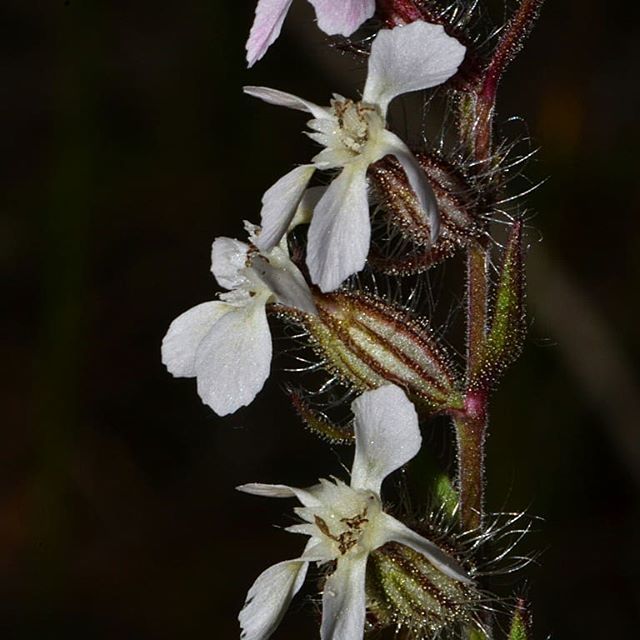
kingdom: Plantae
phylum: Tracheophyta
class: Magnoliopsida
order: Caryophyllales
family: Caryophyllaceae
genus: Silene
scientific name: Silene gallica
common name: Small-flowered catchfly
